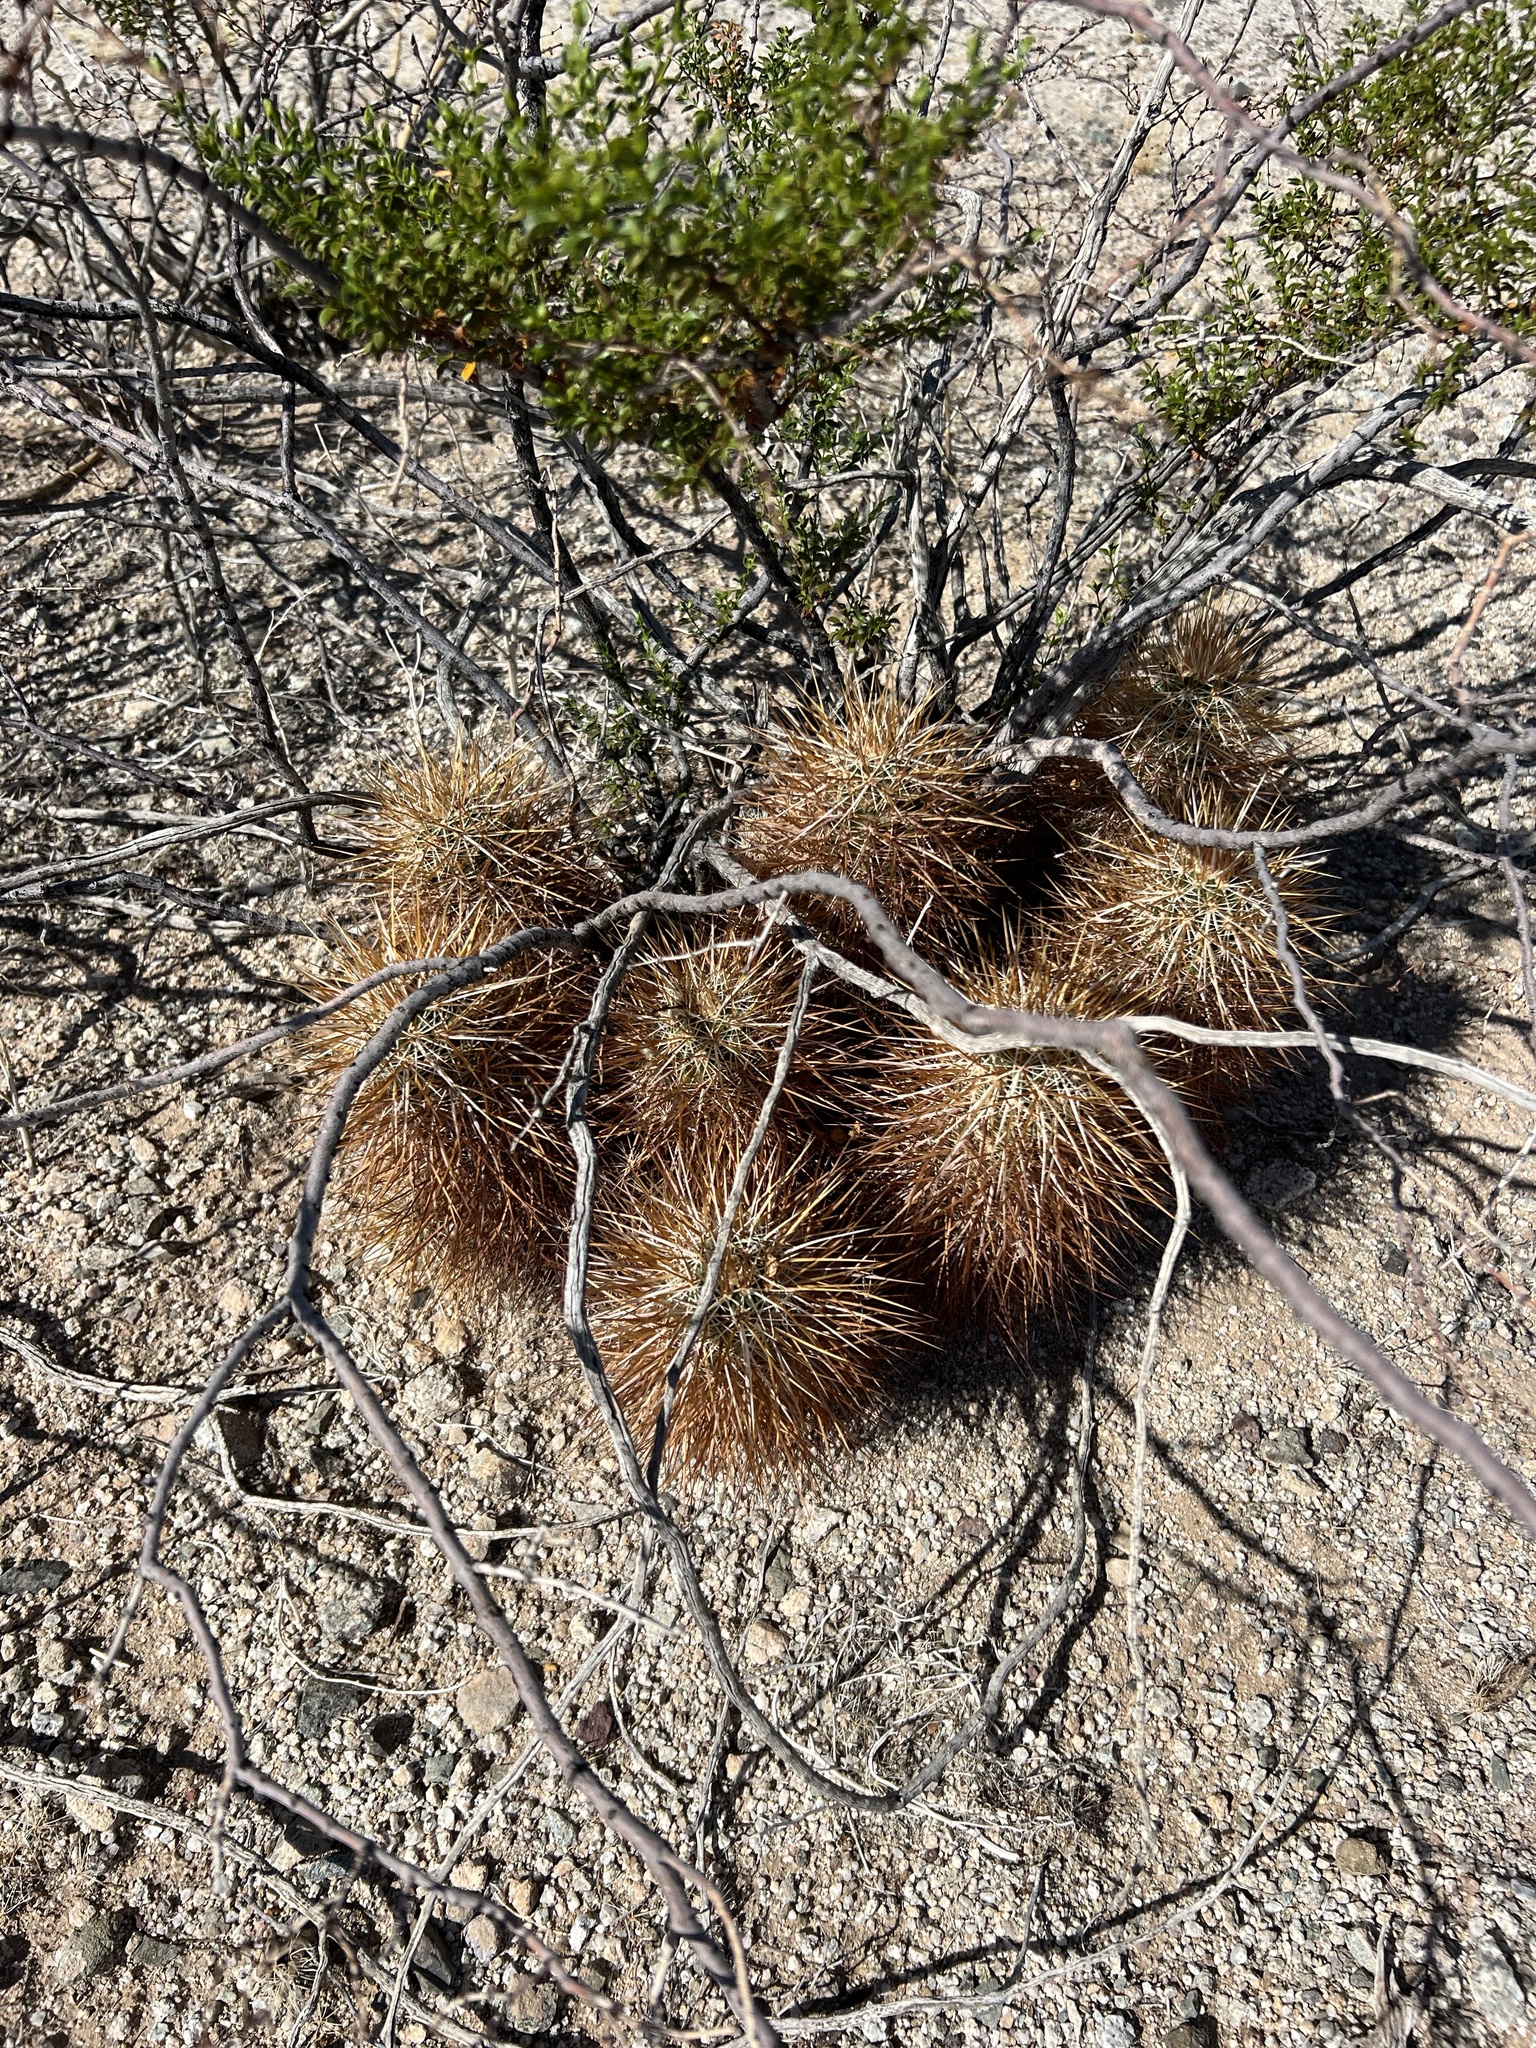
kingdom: Plantae
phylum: Tracheophyta
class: Magnoliopsida
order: Caryophyllales
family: Cactaceae
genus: Echinocereus
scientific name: Echinocereus engelmannii
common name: Engelmann's hedgehog cactus
